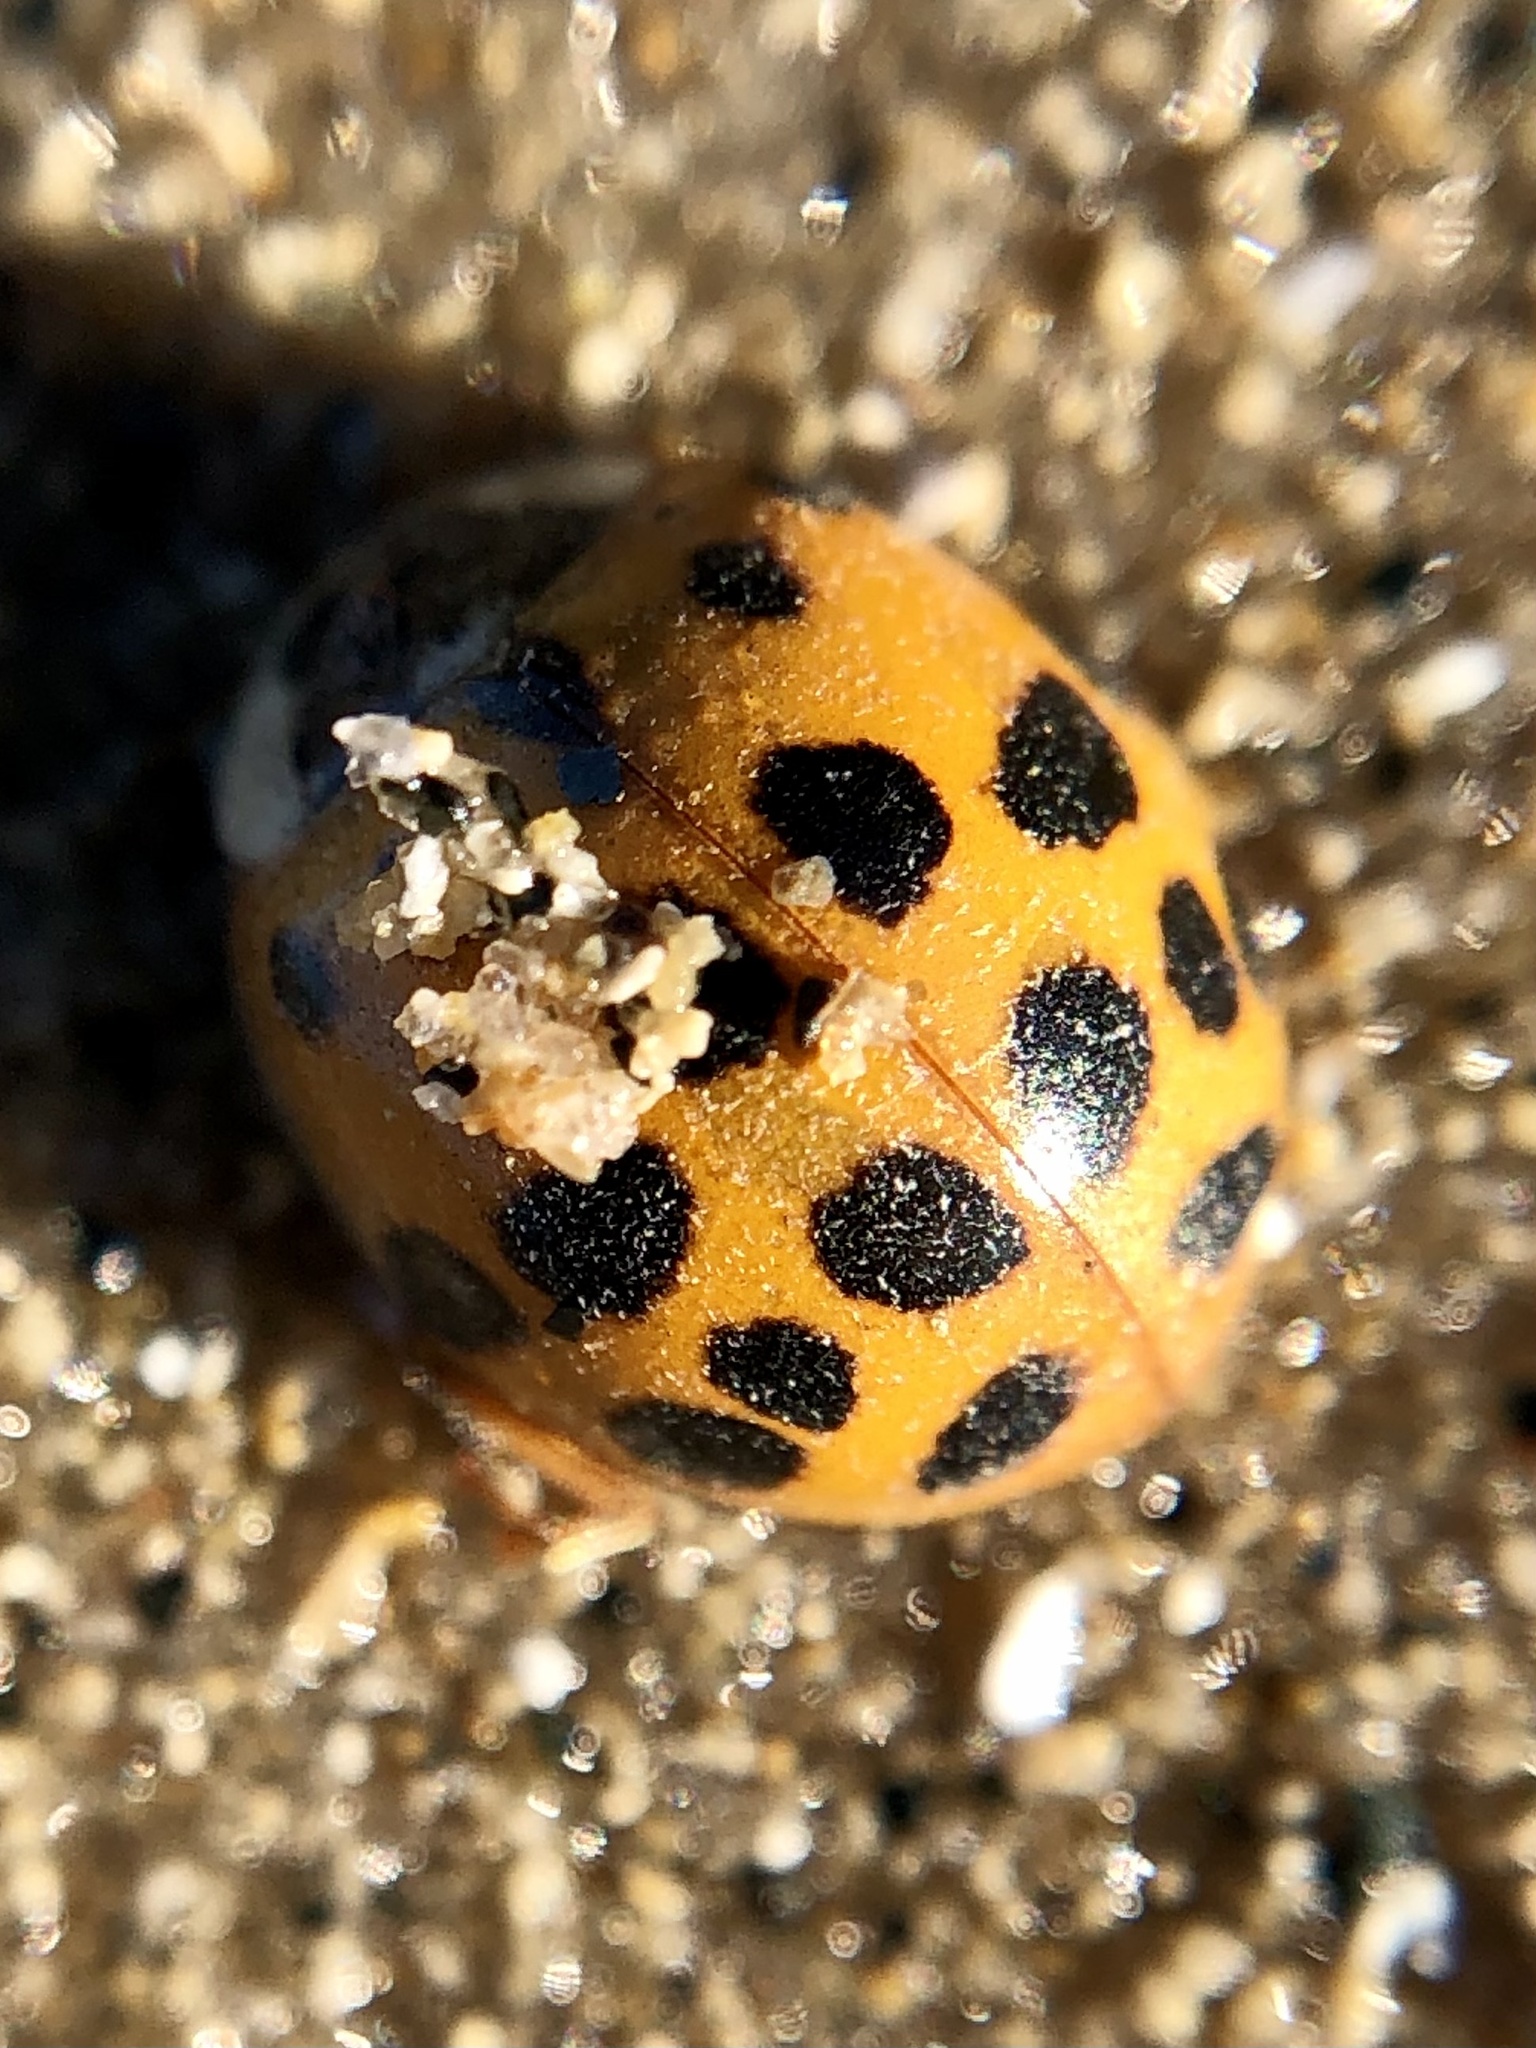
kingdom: Animalia
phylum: Arthropoda
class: Insecta
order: Coleoptera
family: Coccinellidae
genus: Harmonia
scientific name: Harmonia axyridis
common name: Harlequin ladybird
